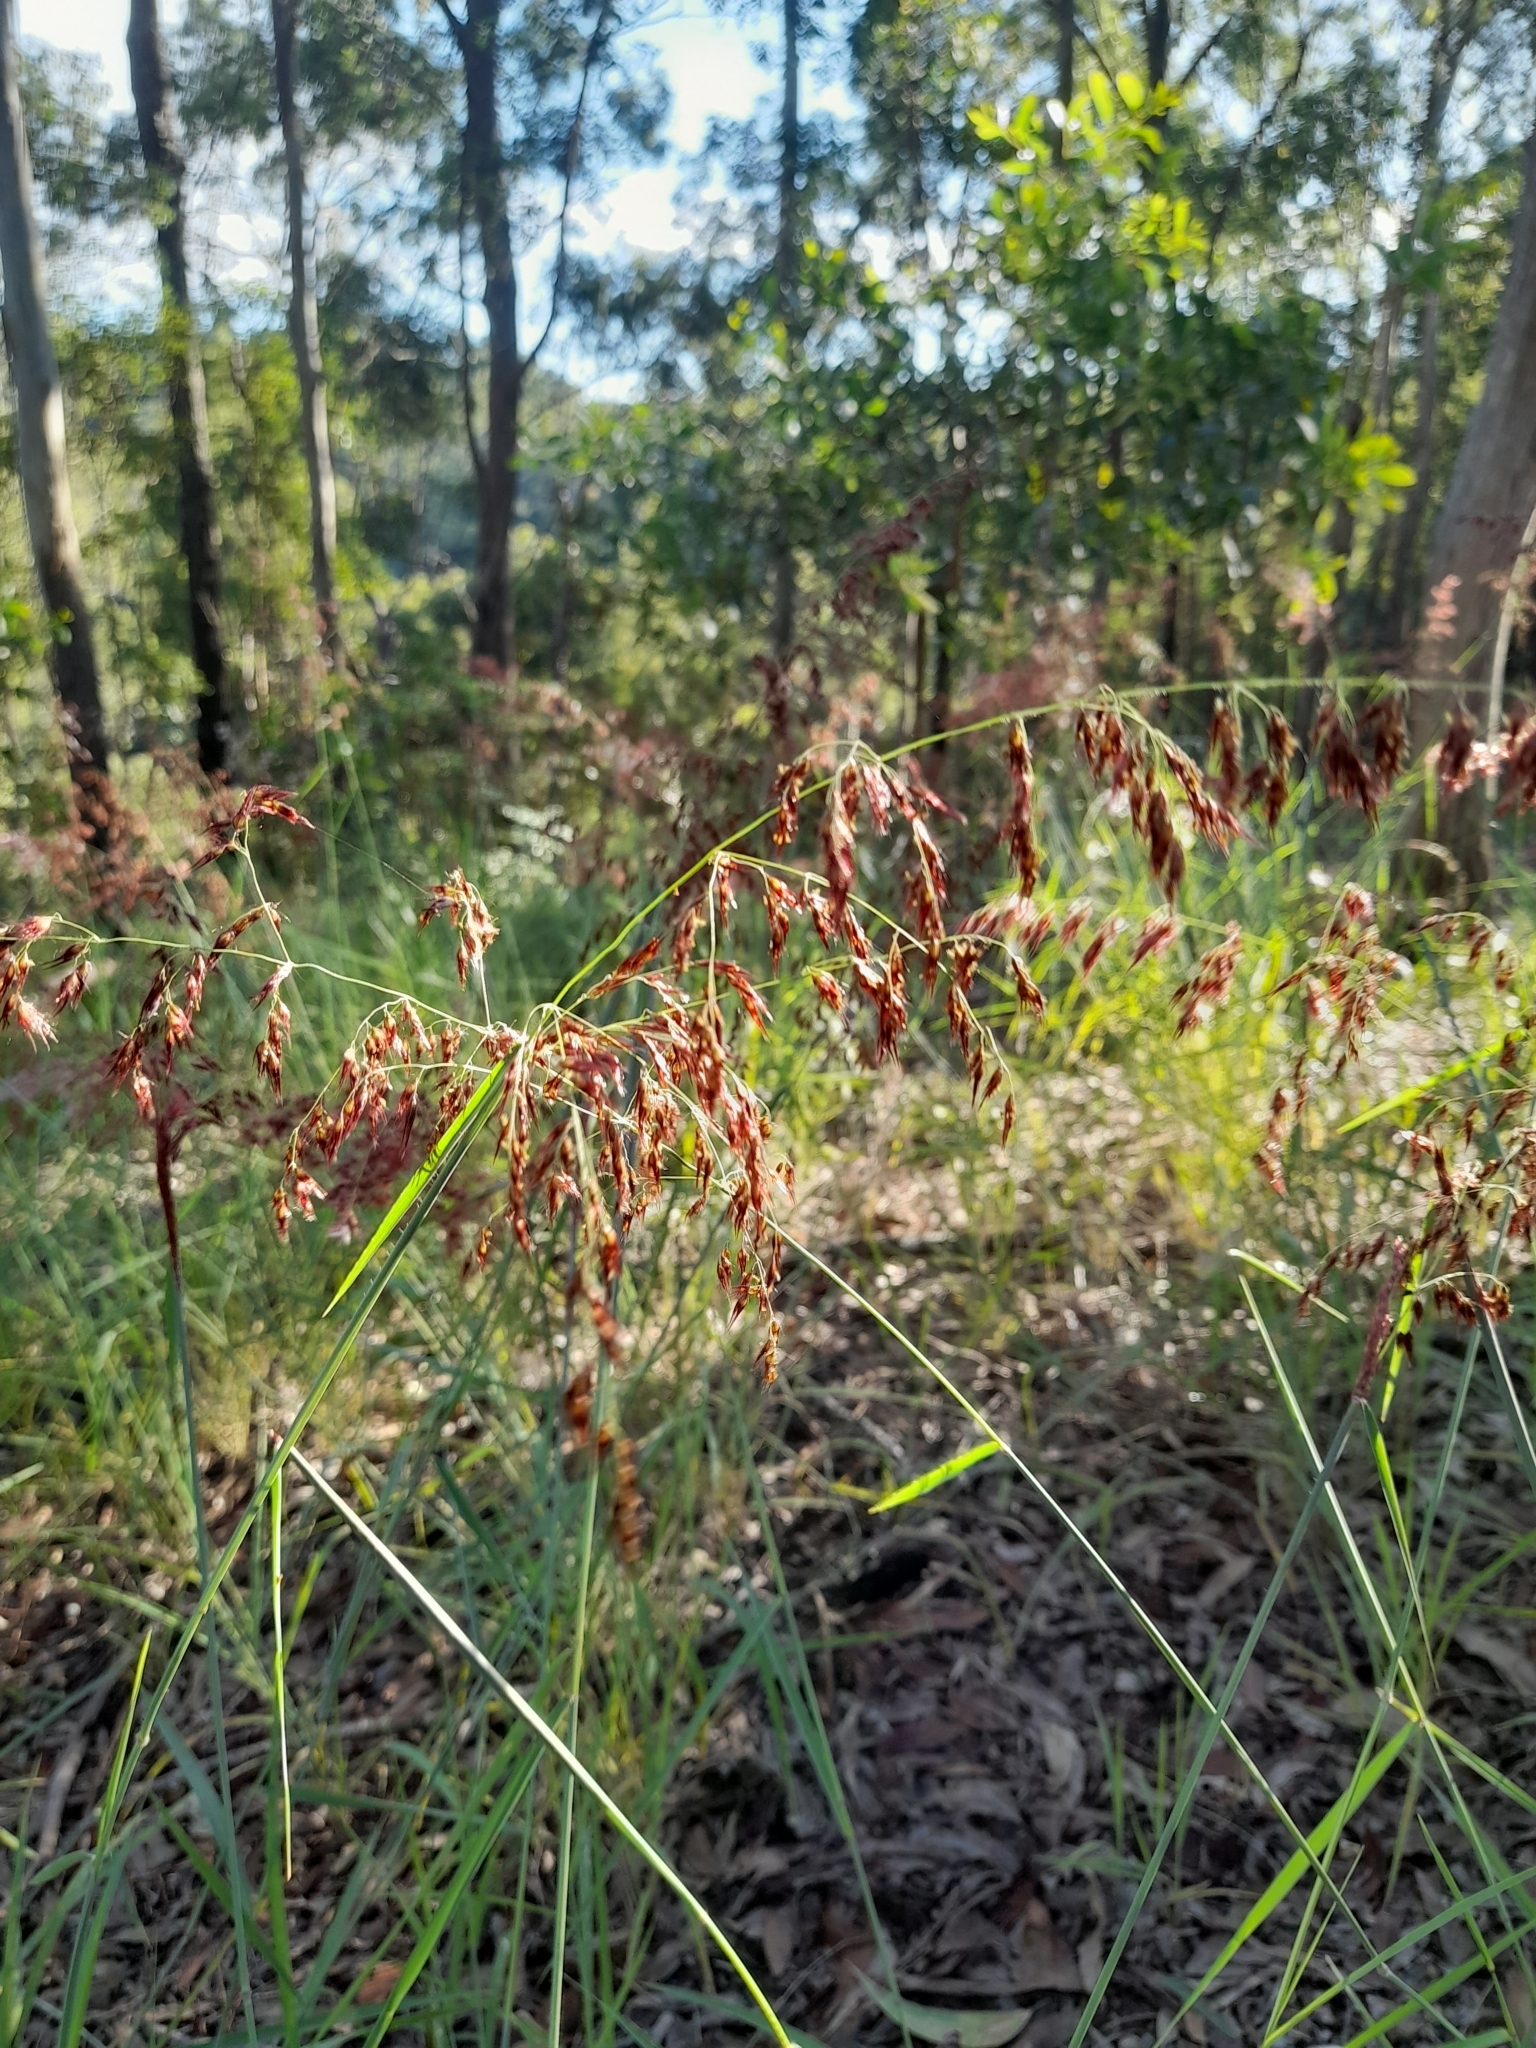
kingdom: Plantae
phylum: Tracheophyta
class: Liliopsida
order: Poales
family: Poaceae
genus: Melinis
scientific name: Melinis repens
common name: Rose natal grass
